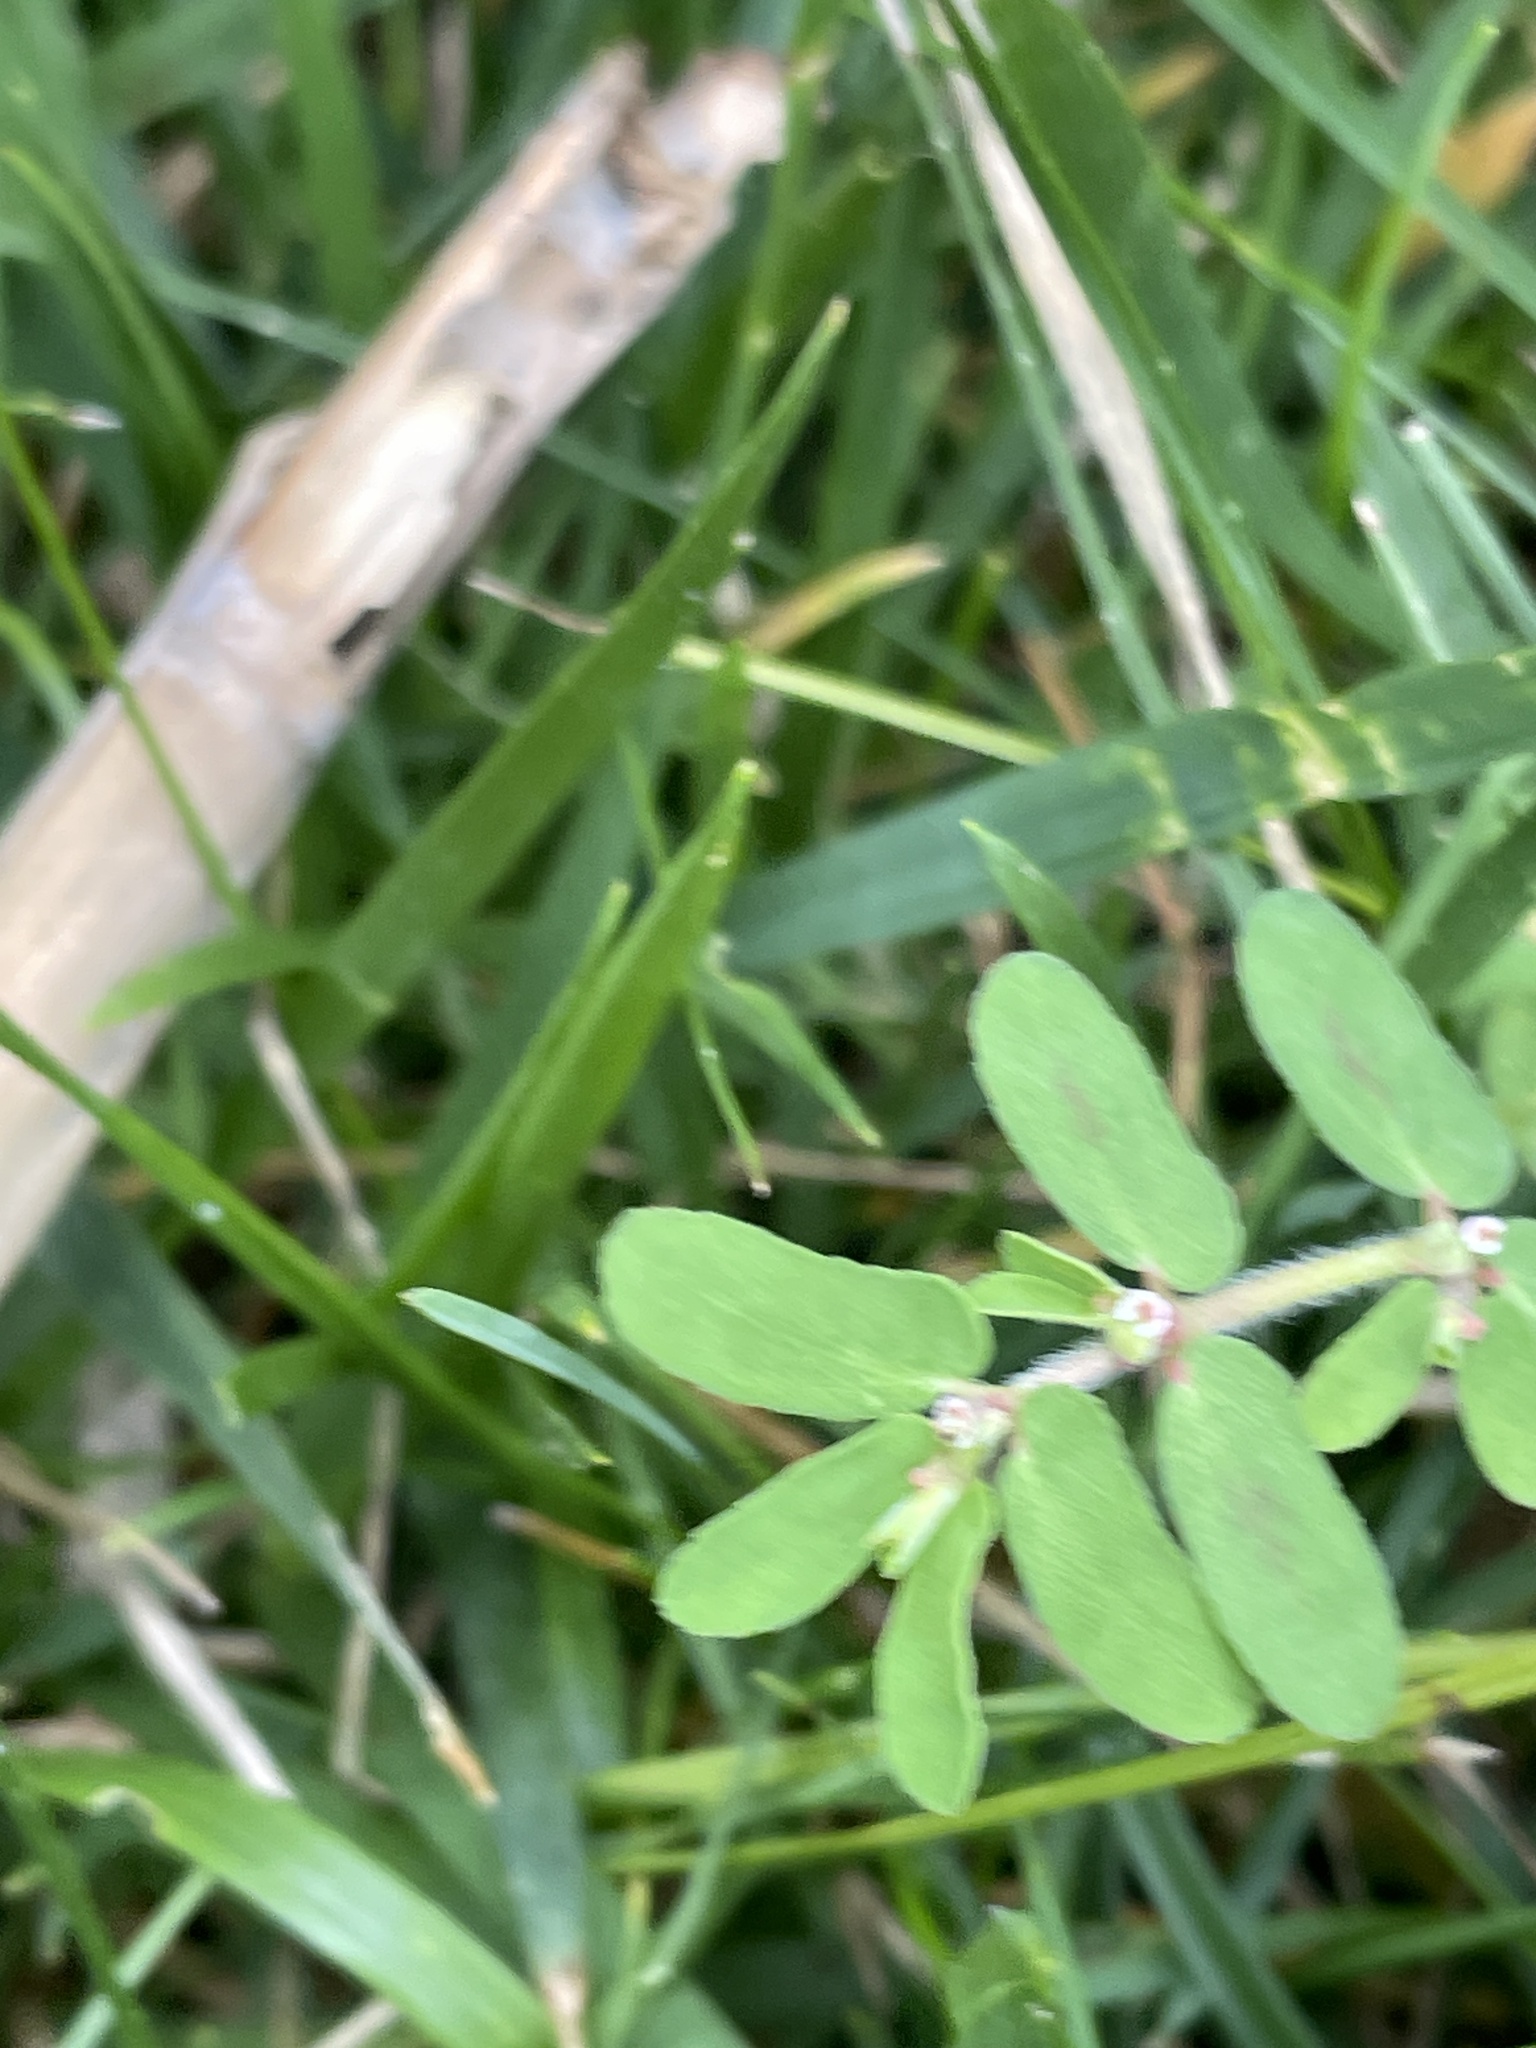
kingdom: Plantae
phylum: Tracheophyta
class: Magnoliopsida
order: Malpighiales
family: Euphorbiaceae
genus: Euphorbia
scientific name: Euphorbia maculata
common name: Spotted spurge
